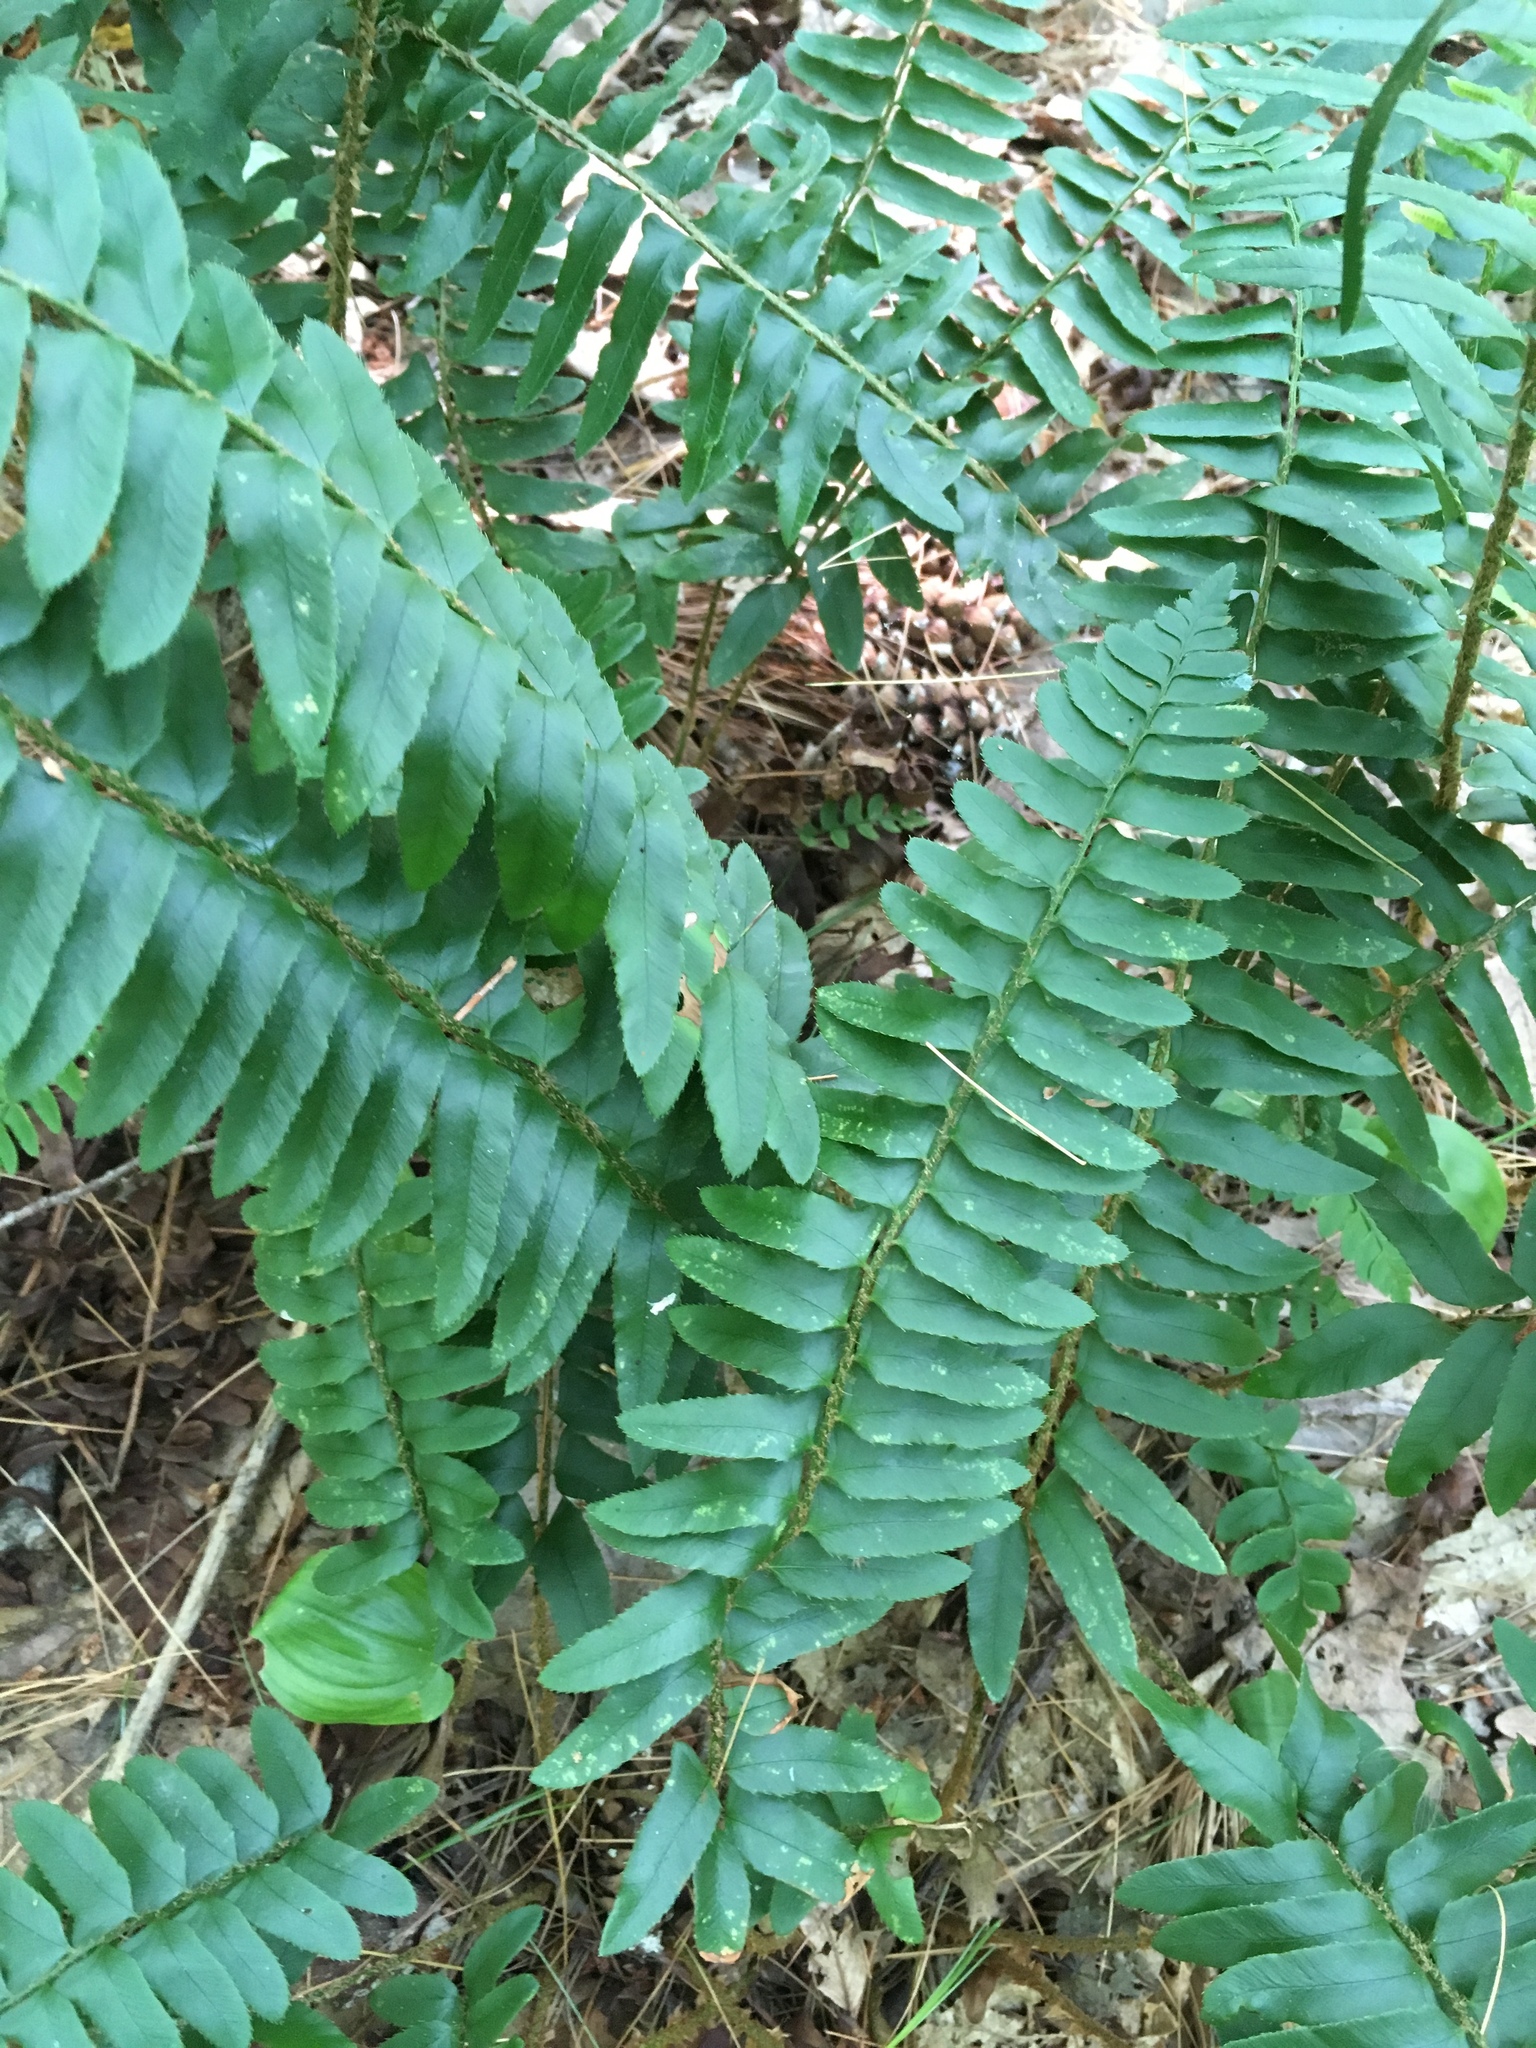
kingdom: Plantae
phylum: Tracheophyta
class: Polypodiopsida
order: Polypodiales
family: Dryopteridaceae
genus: Polystichum
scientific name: Polystichum acrostichoides
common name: Christmas fern
